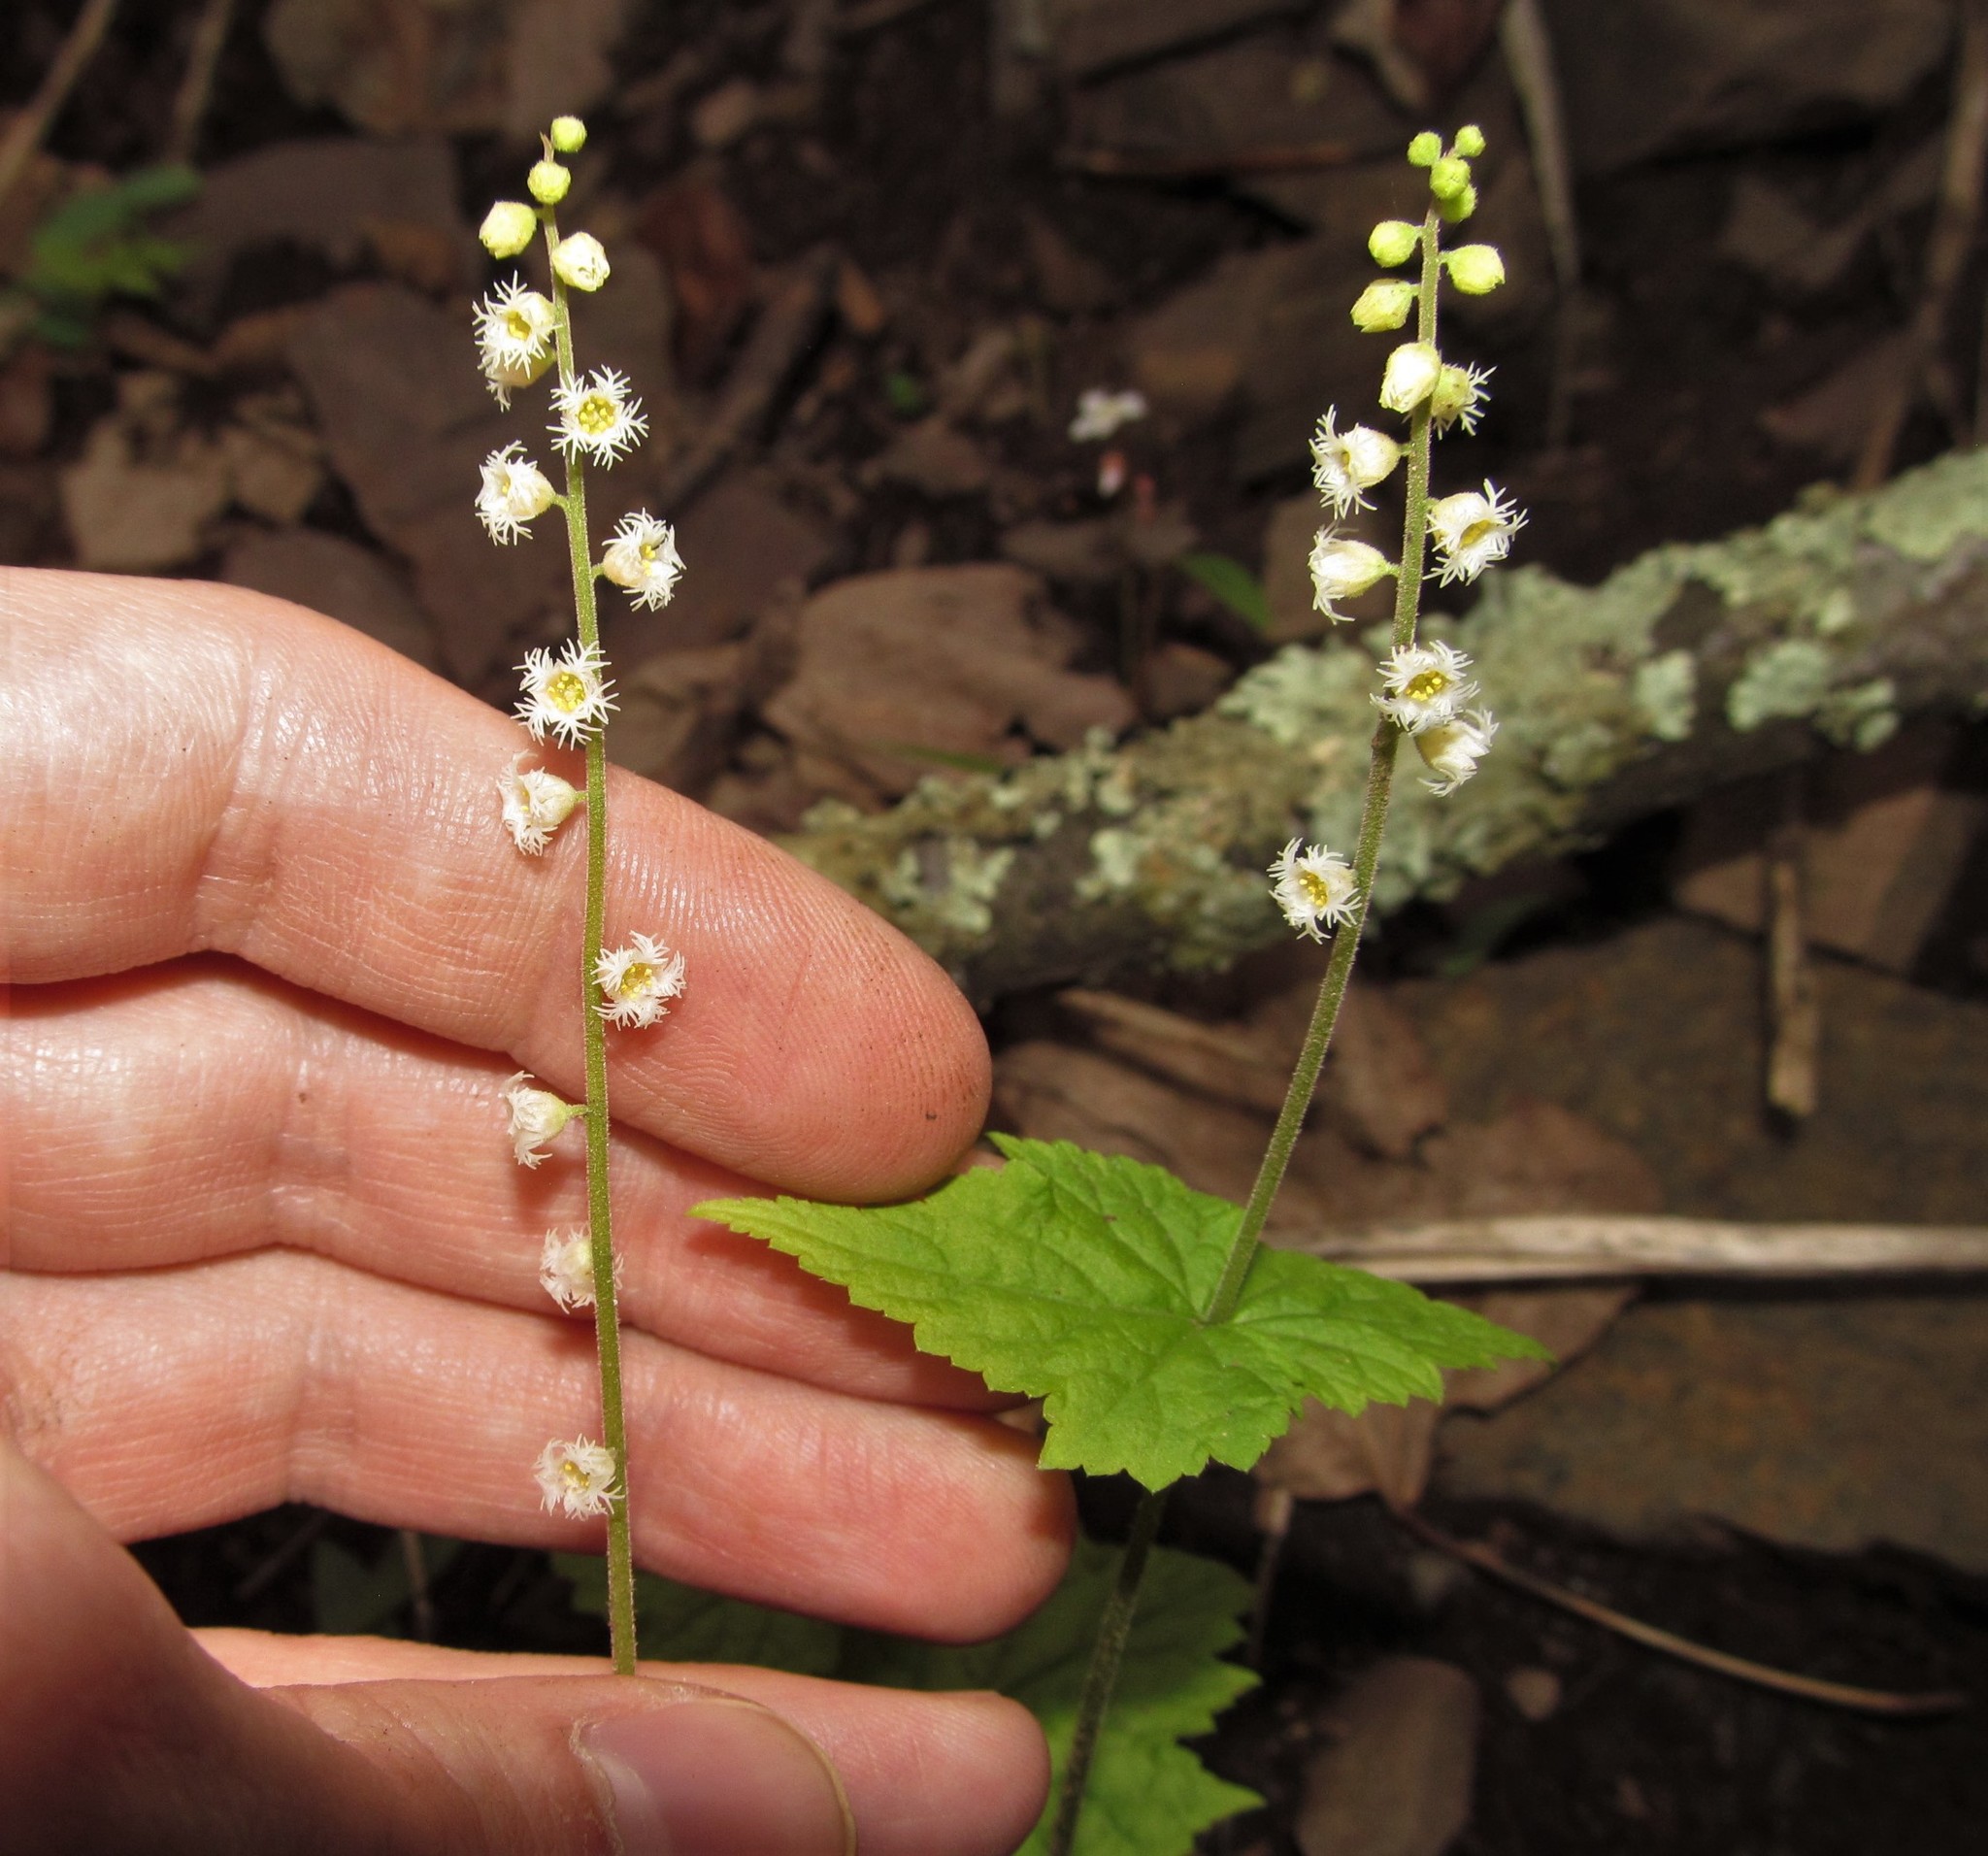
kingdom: Plantae
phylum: Tracheophyta
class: Magnoliopsida
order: Saxifragales
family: Saxifragaceae
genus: Mitella
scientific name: Mitella diphylla
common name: Coolwort
